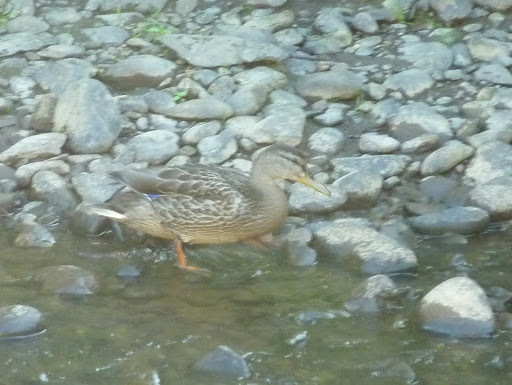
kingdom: Animalia
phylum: Chordata
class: Aves
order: Anseriformes
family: Anatidae
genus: Anas
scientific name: Anas platyrhynchos
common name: Mallard
